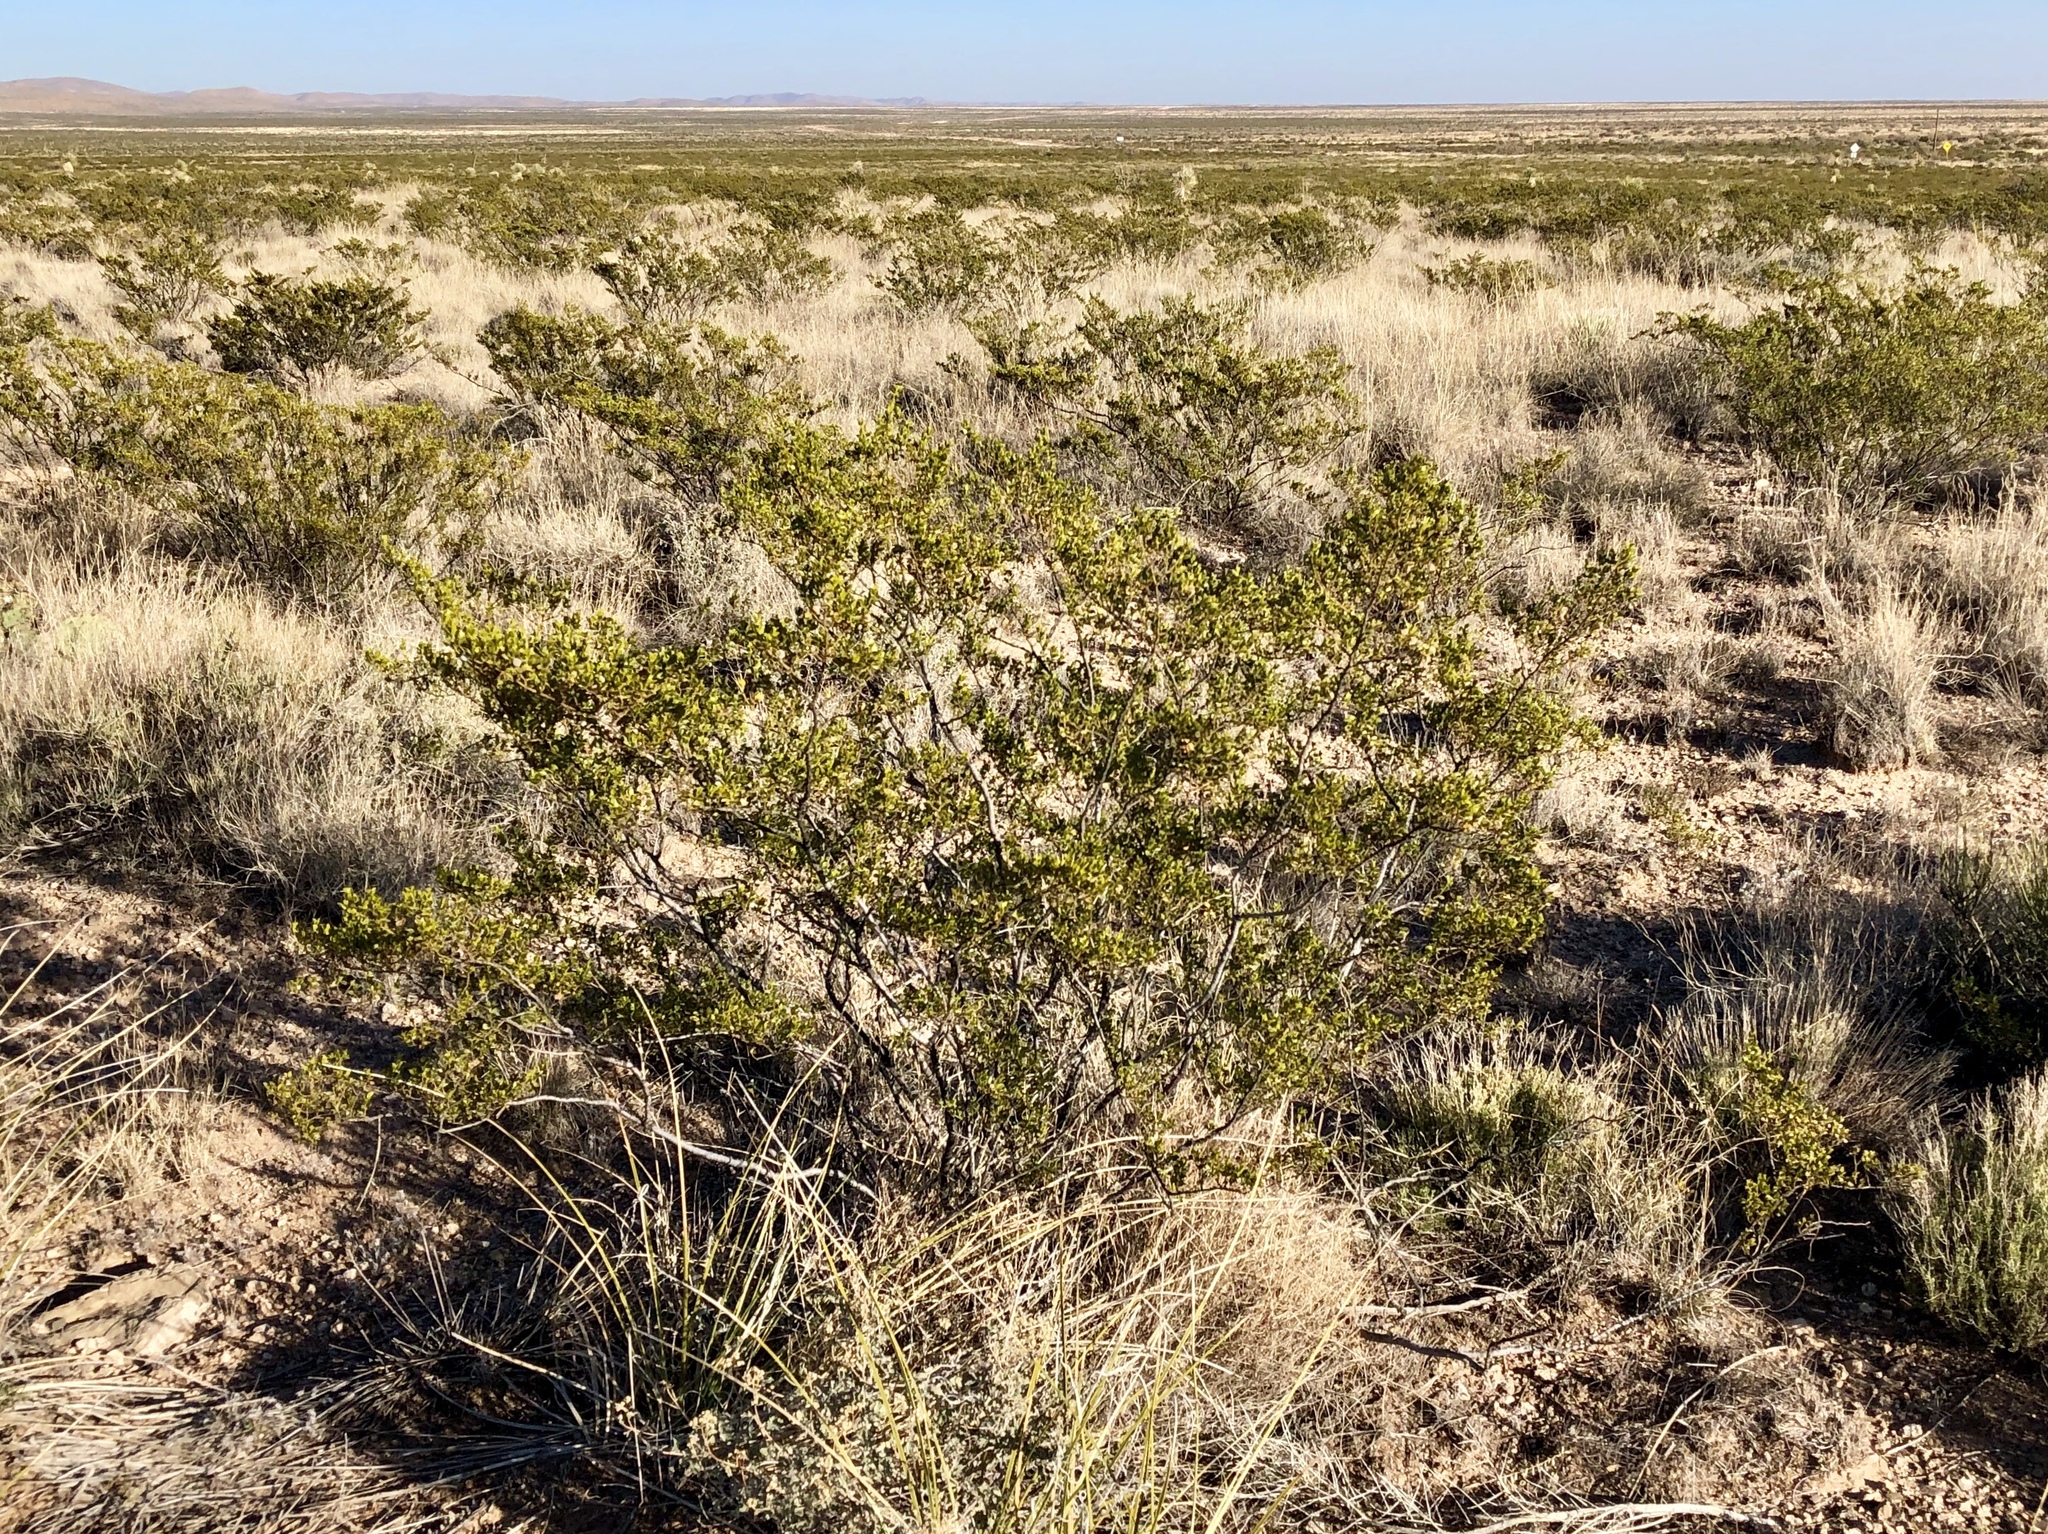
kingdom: Plantae
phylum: Tracheophyta
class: Magnoliopsida
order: Zygophyllales
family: Zygophyllaceae
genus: Larrea
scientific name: Larrea tridentata
